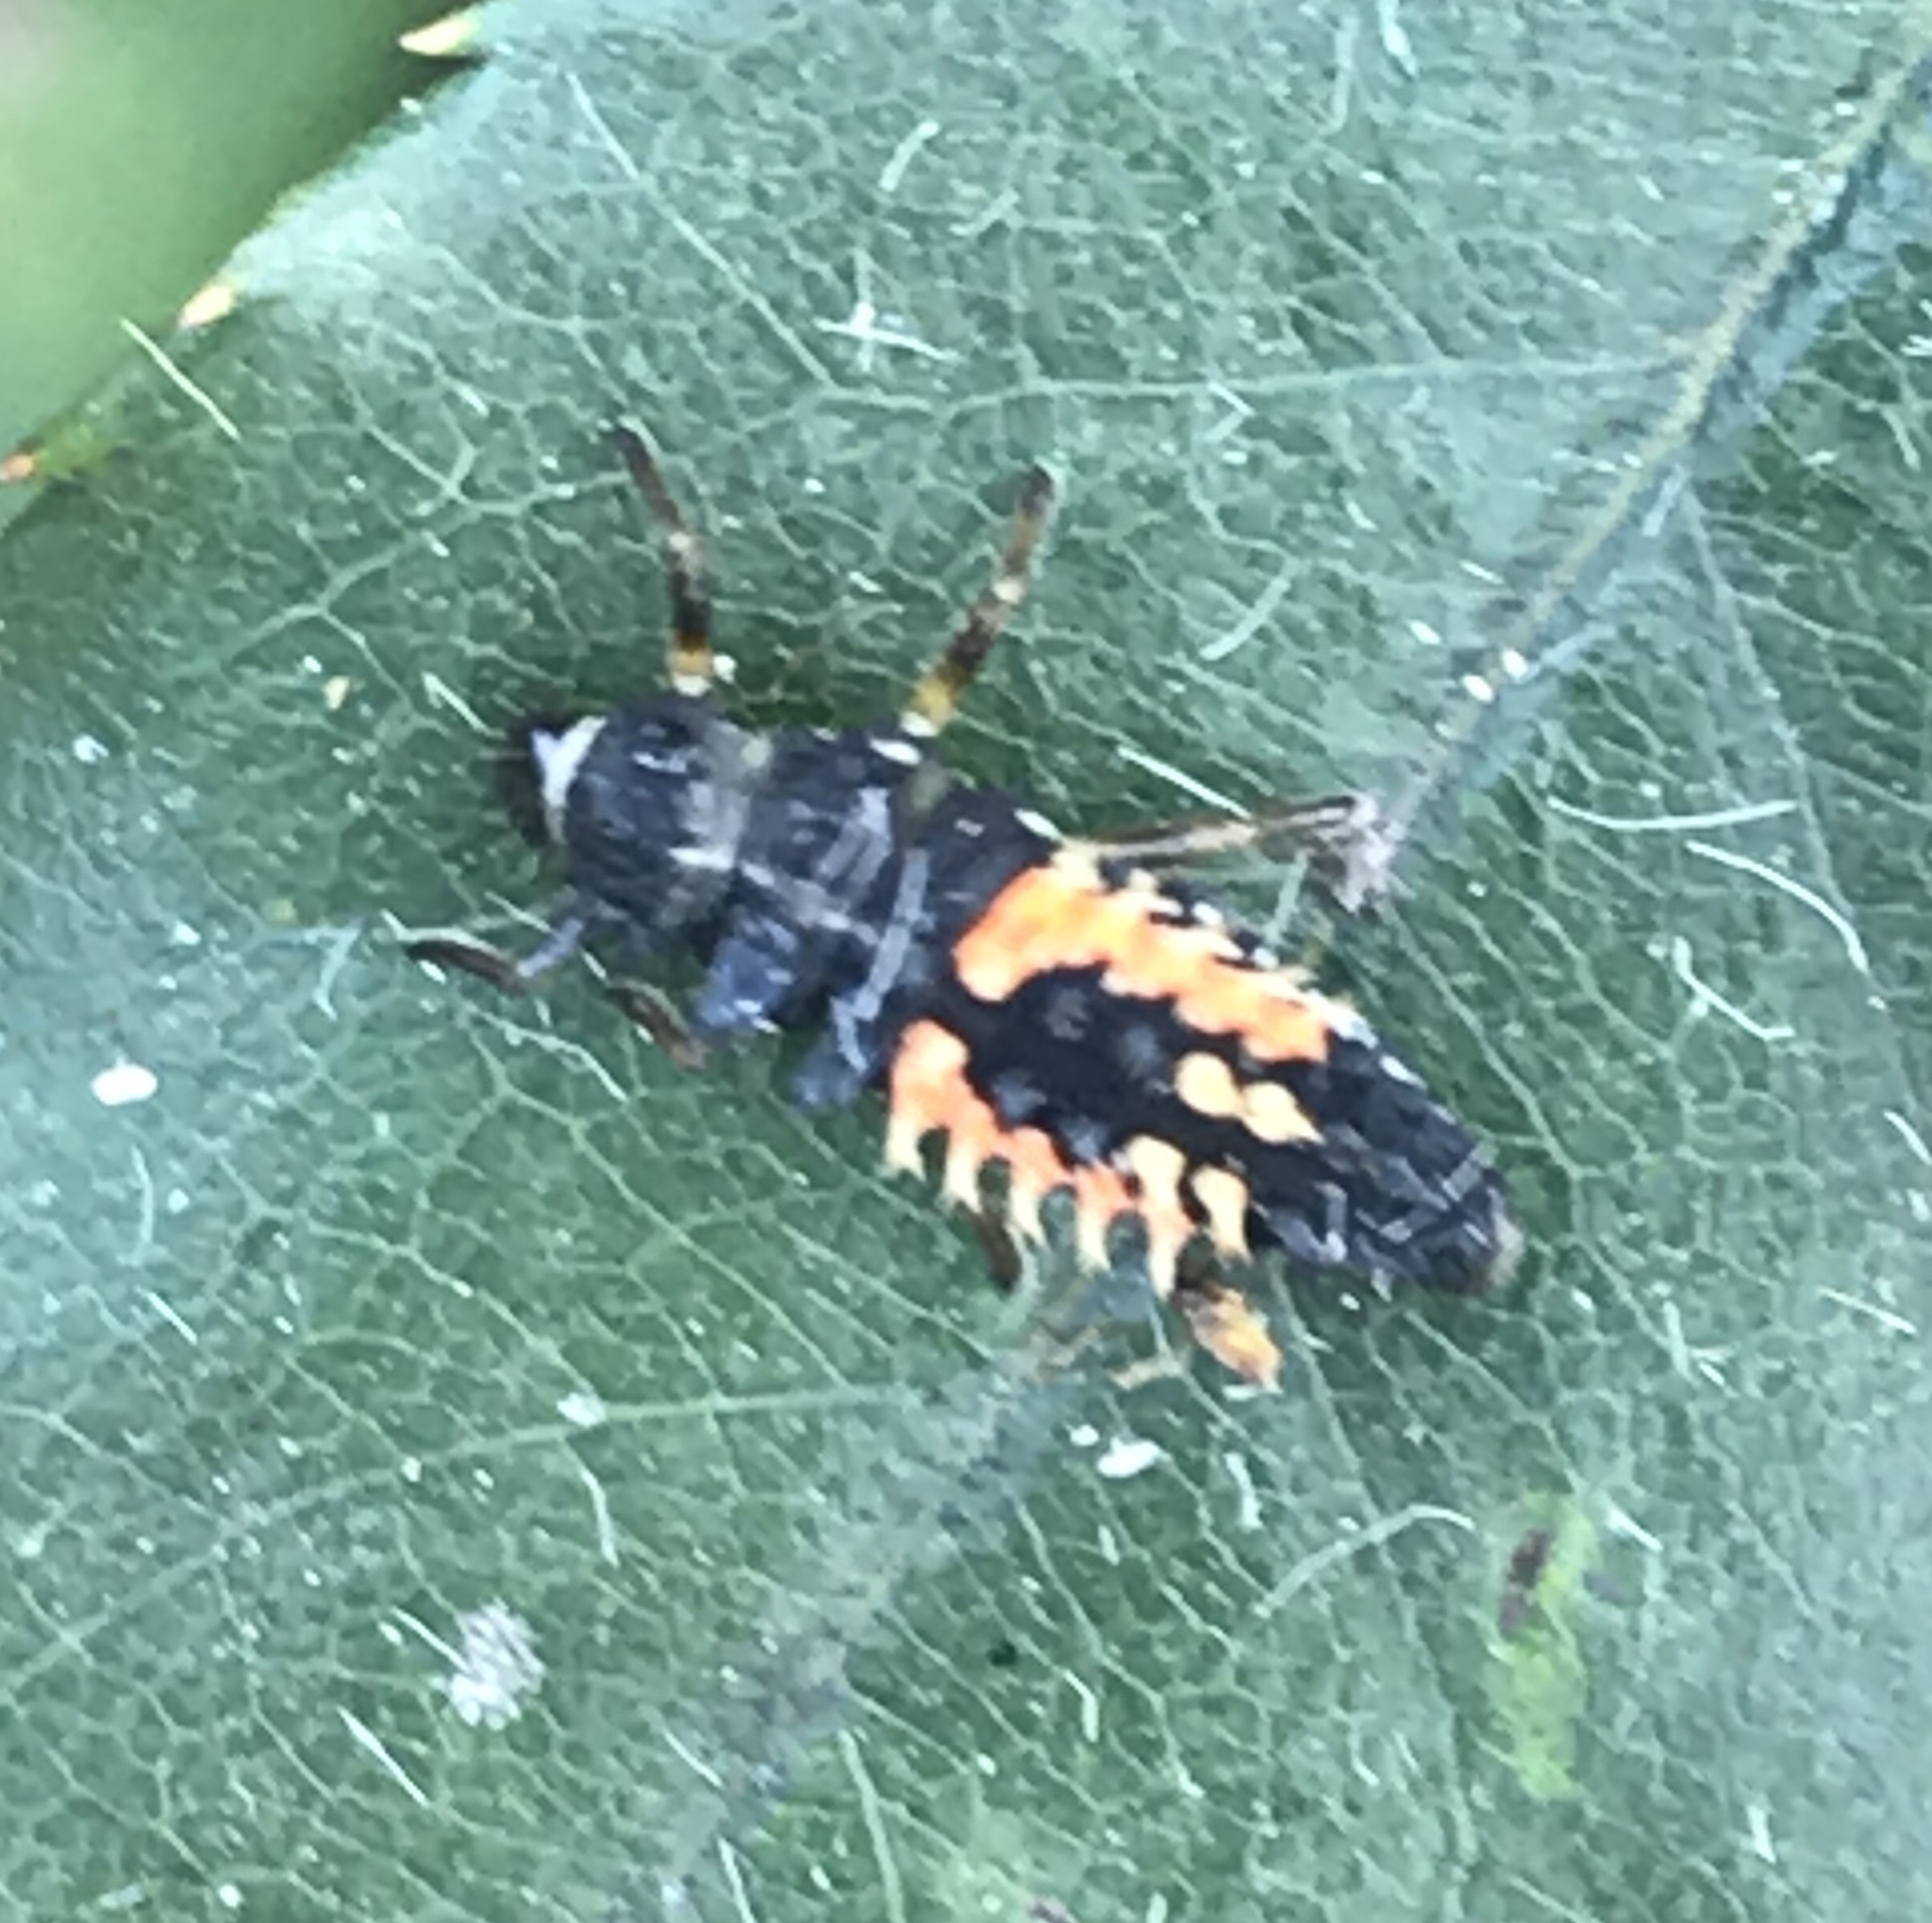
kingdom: Animalia
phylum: Arthropoda
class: Insecta
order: Coleoptera
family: Coccinellidae
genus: Harmonia
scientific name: Harmonia axyridis
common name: Harlequin ladybird
